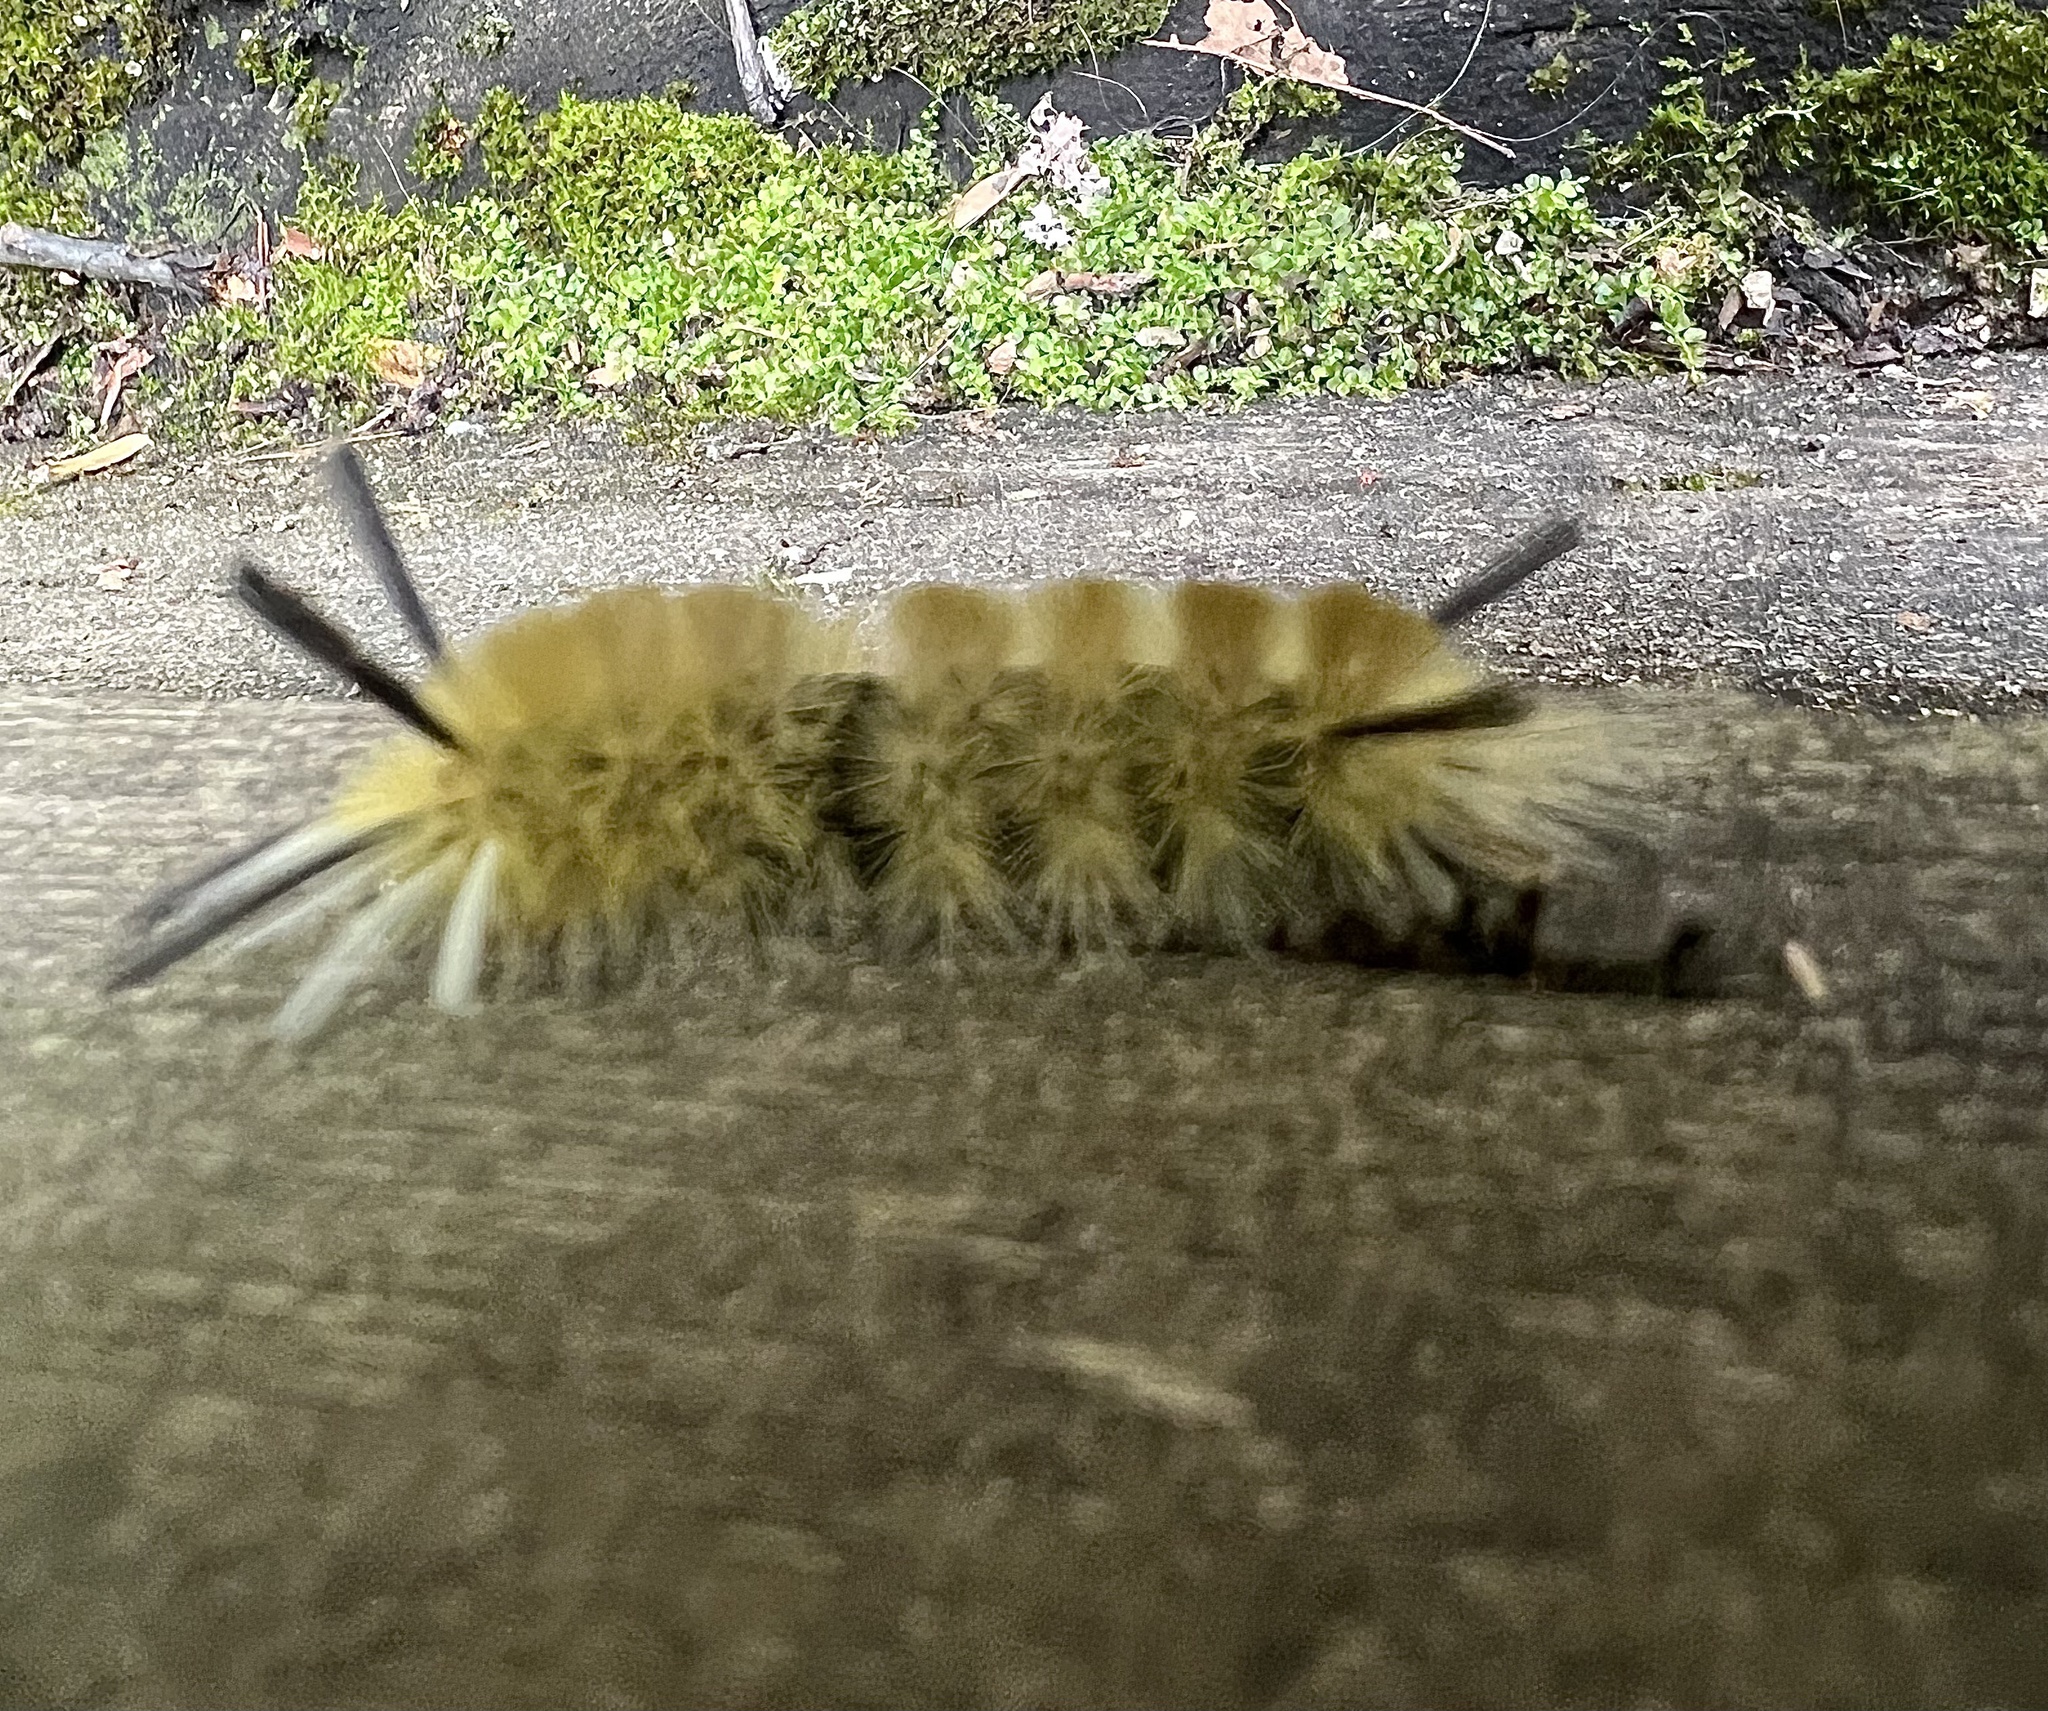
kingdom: Animalia
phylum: Arthropoda
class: Insecta
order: Lepidoptera
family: Erebidae
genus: Halysidota
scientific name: Halysidota tessellaris
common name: Banded tussock moth
